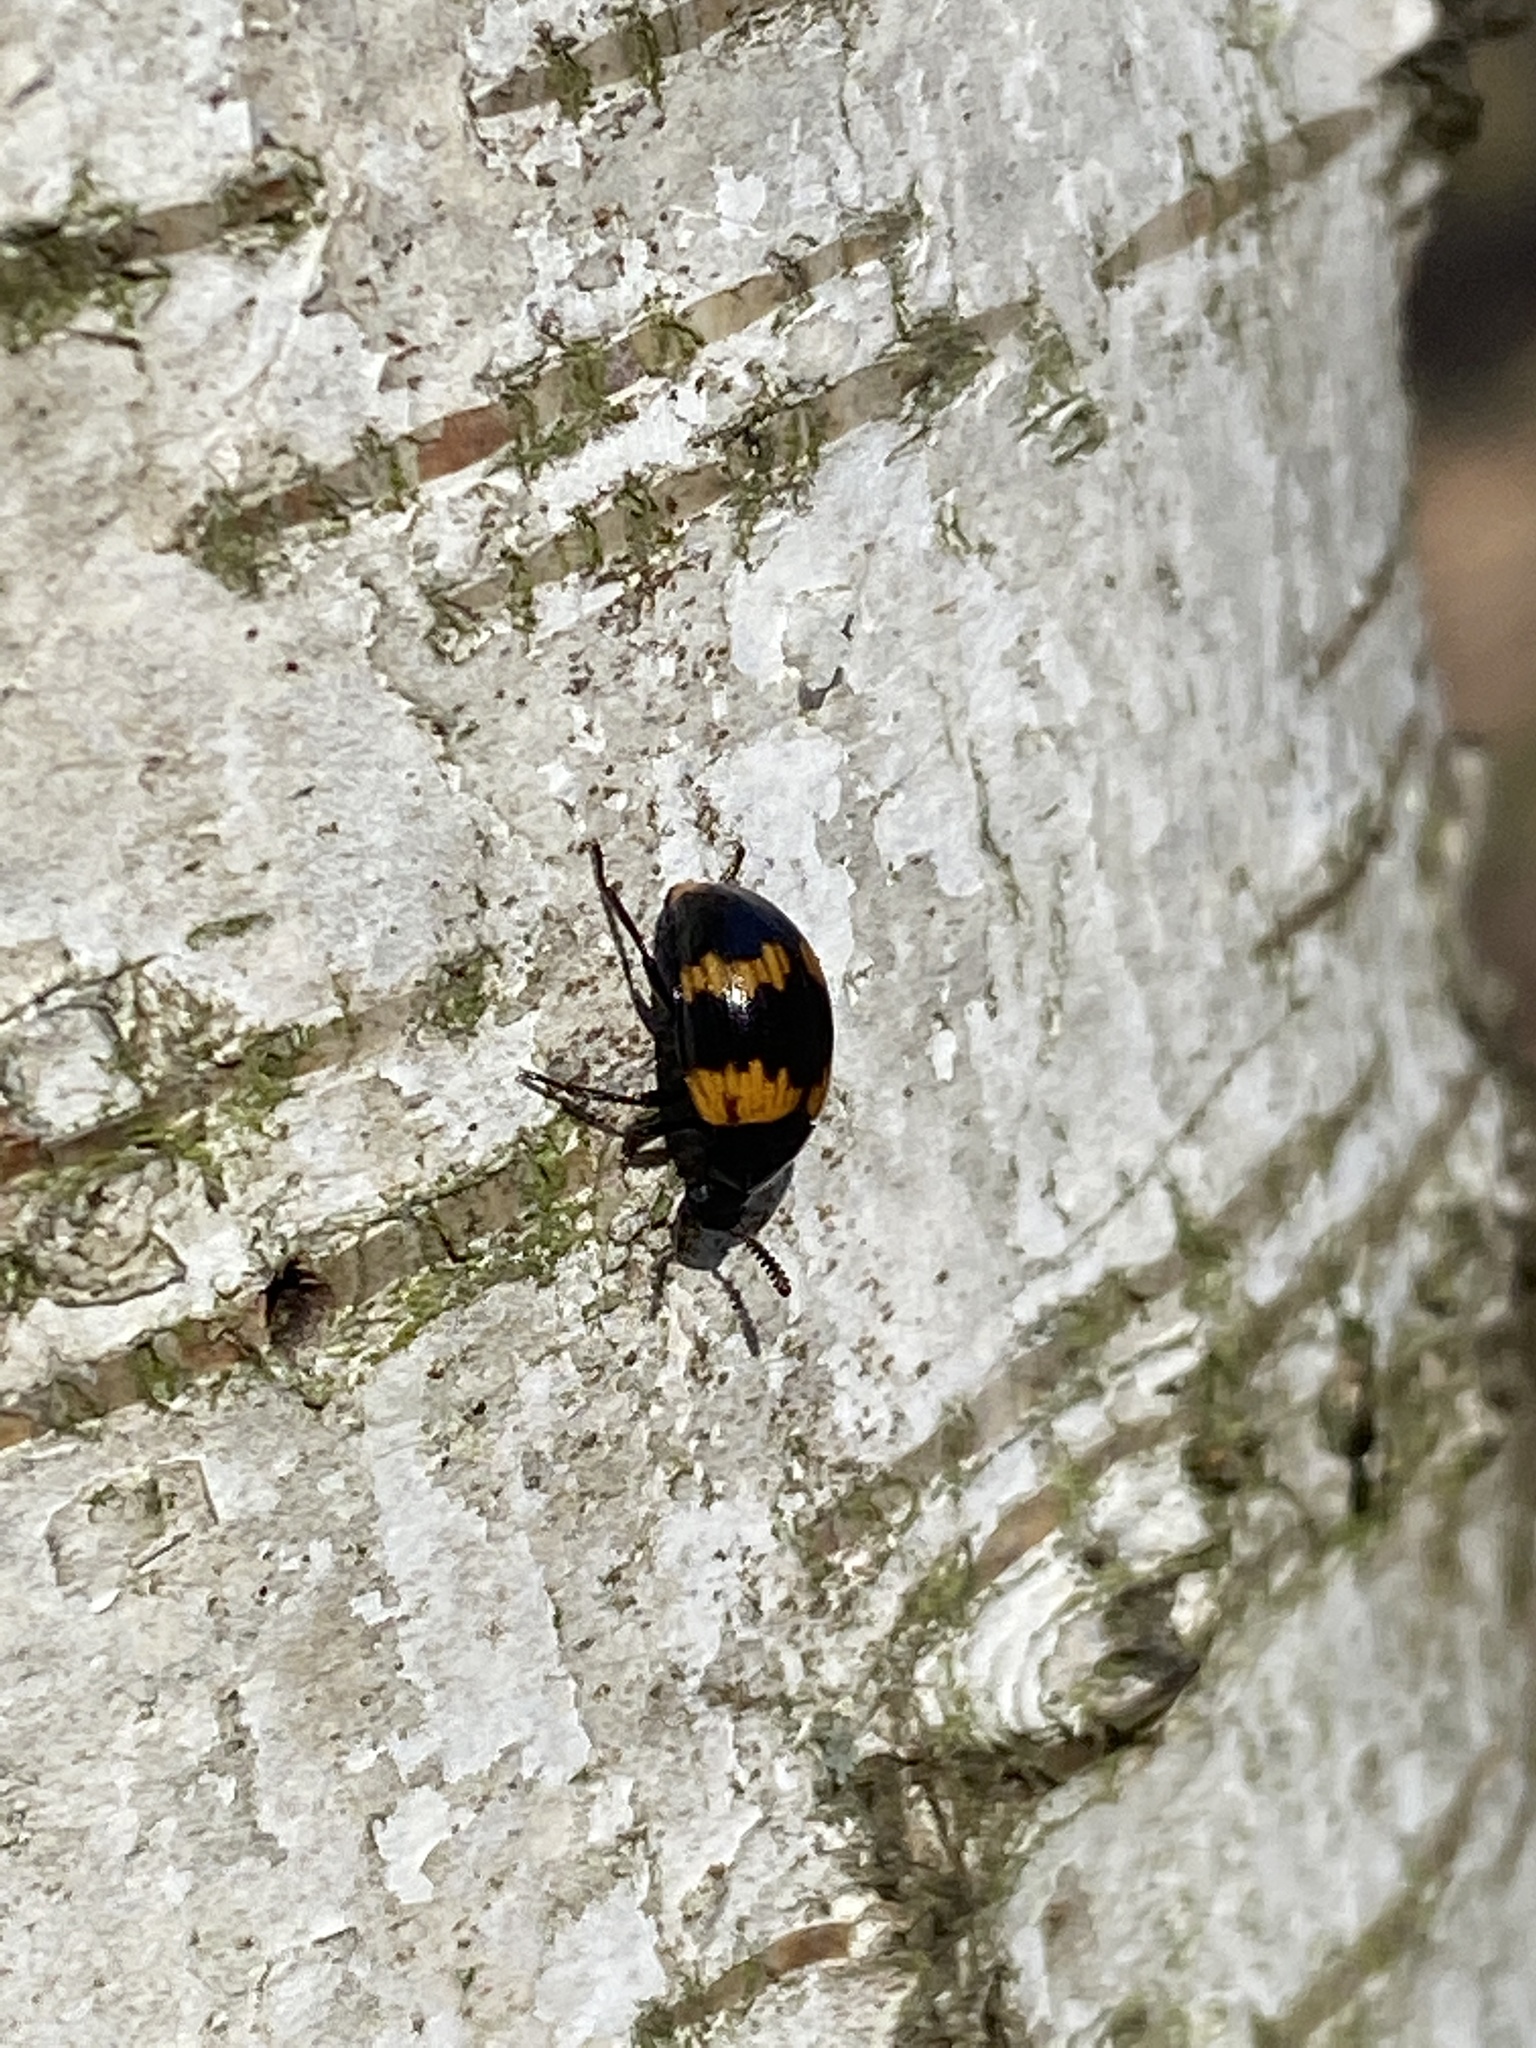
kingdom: Animalia
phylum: Arthropoda
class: Insecta
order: Coleoptera
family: Tenebrionidae
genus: Diaperis
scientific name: Diaperis boleti
